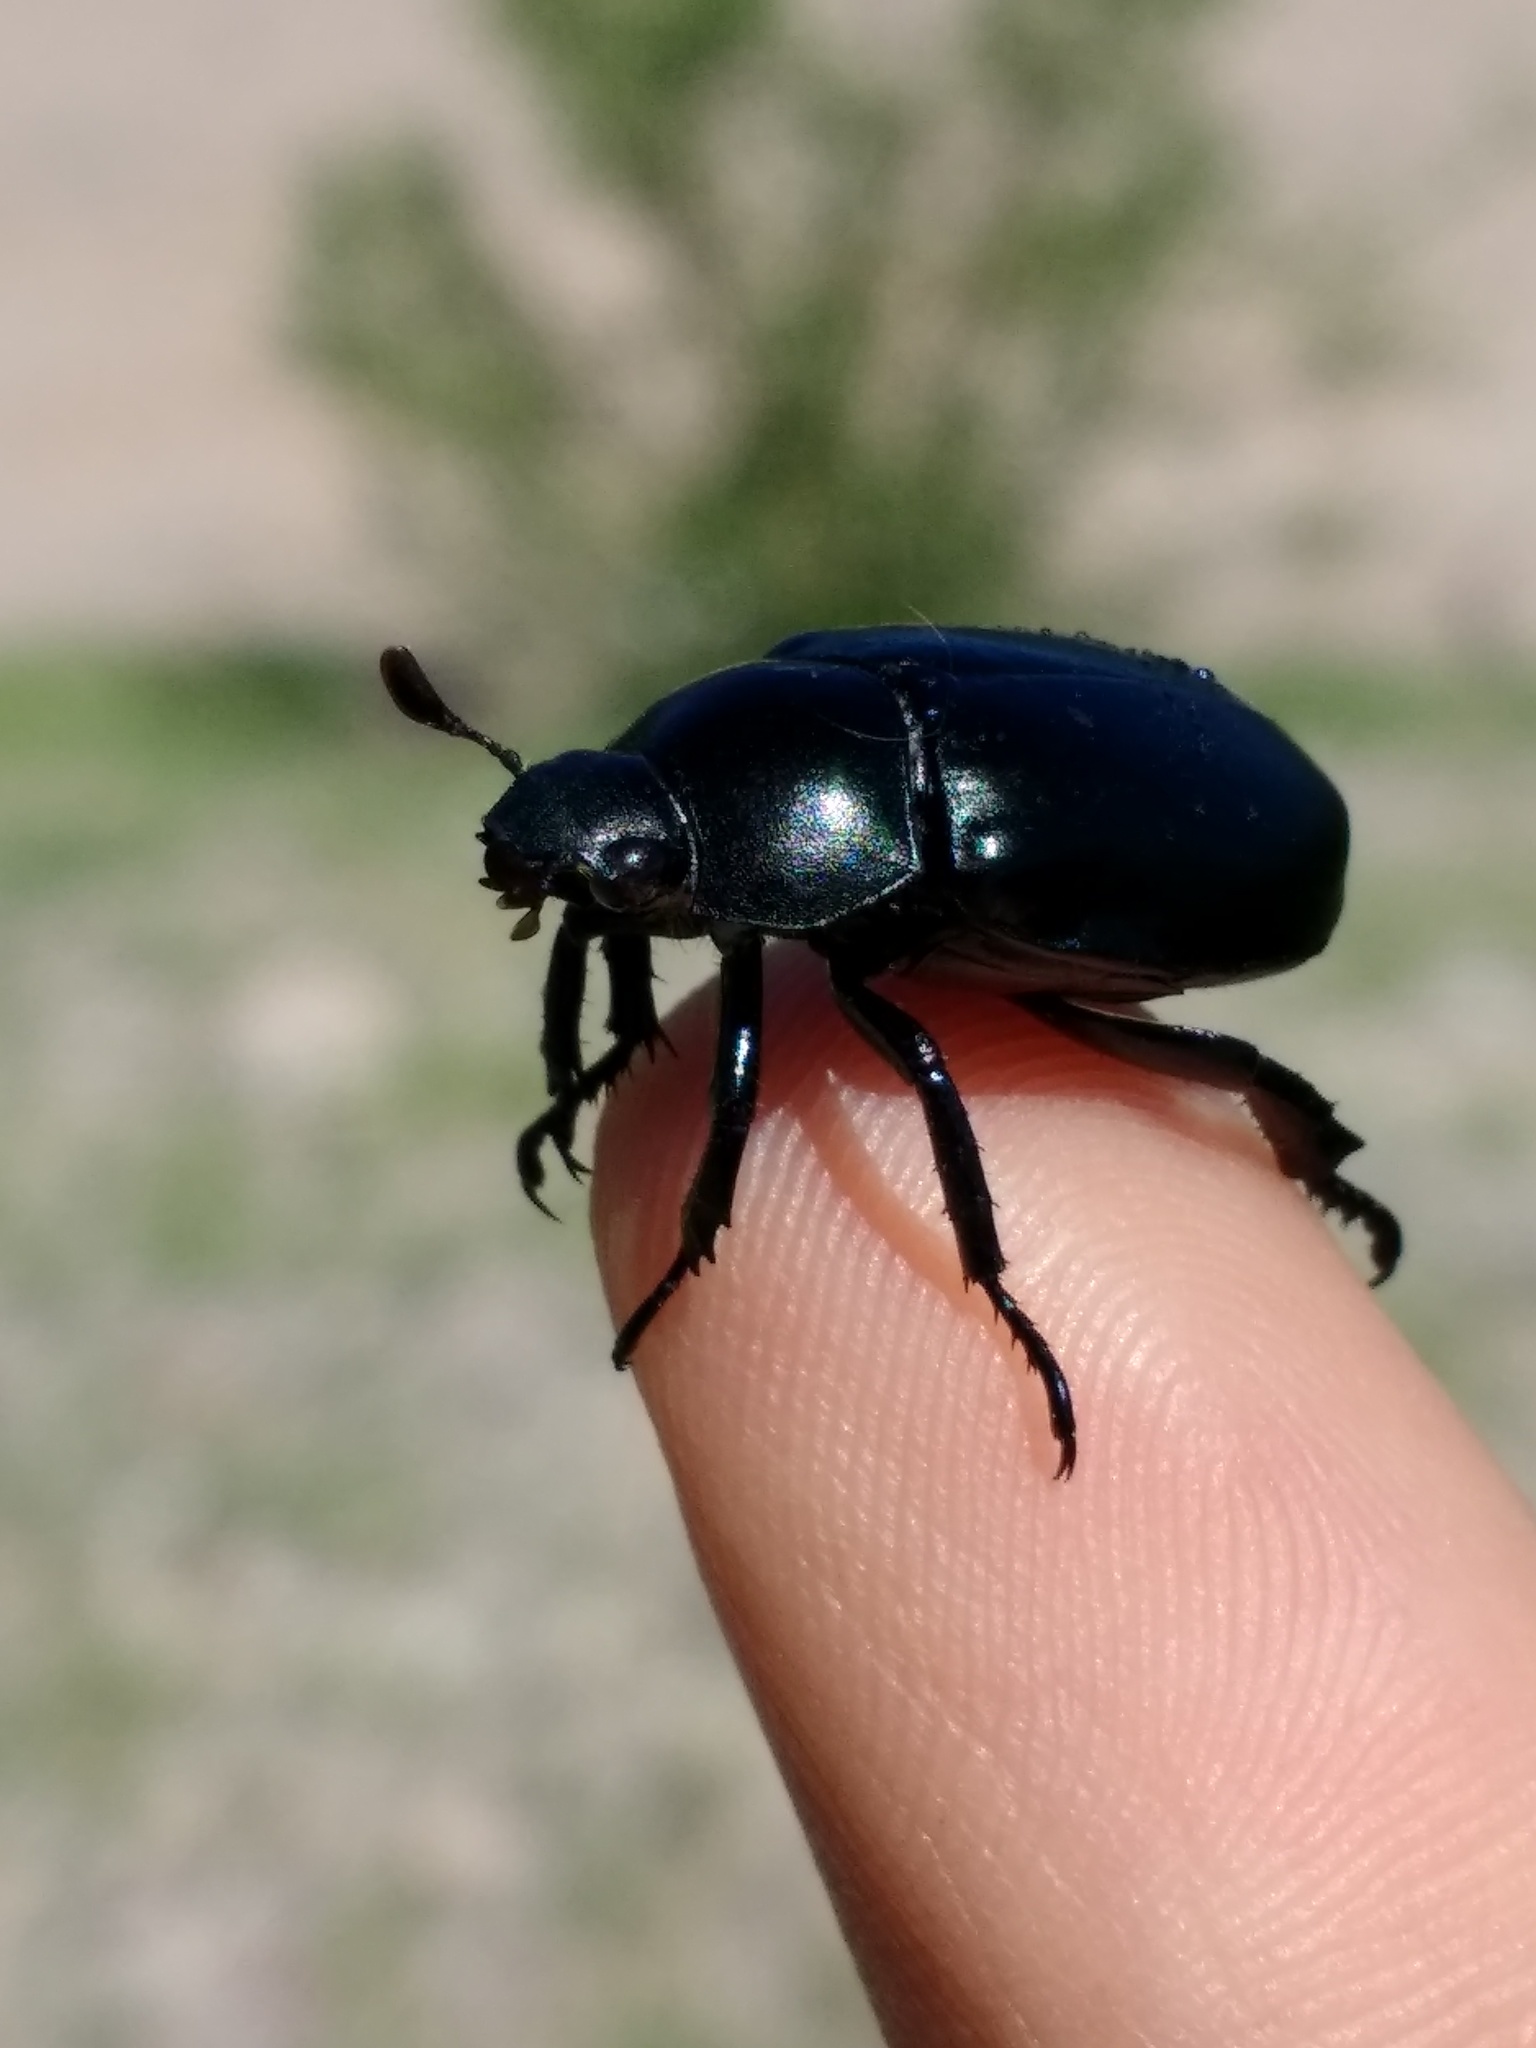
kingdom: Animalia
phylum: Arthropoda
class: Insecta
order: Coleoptera
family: Scarabaeidae
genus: Pelidnota
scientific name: Pelidnota lugubris
